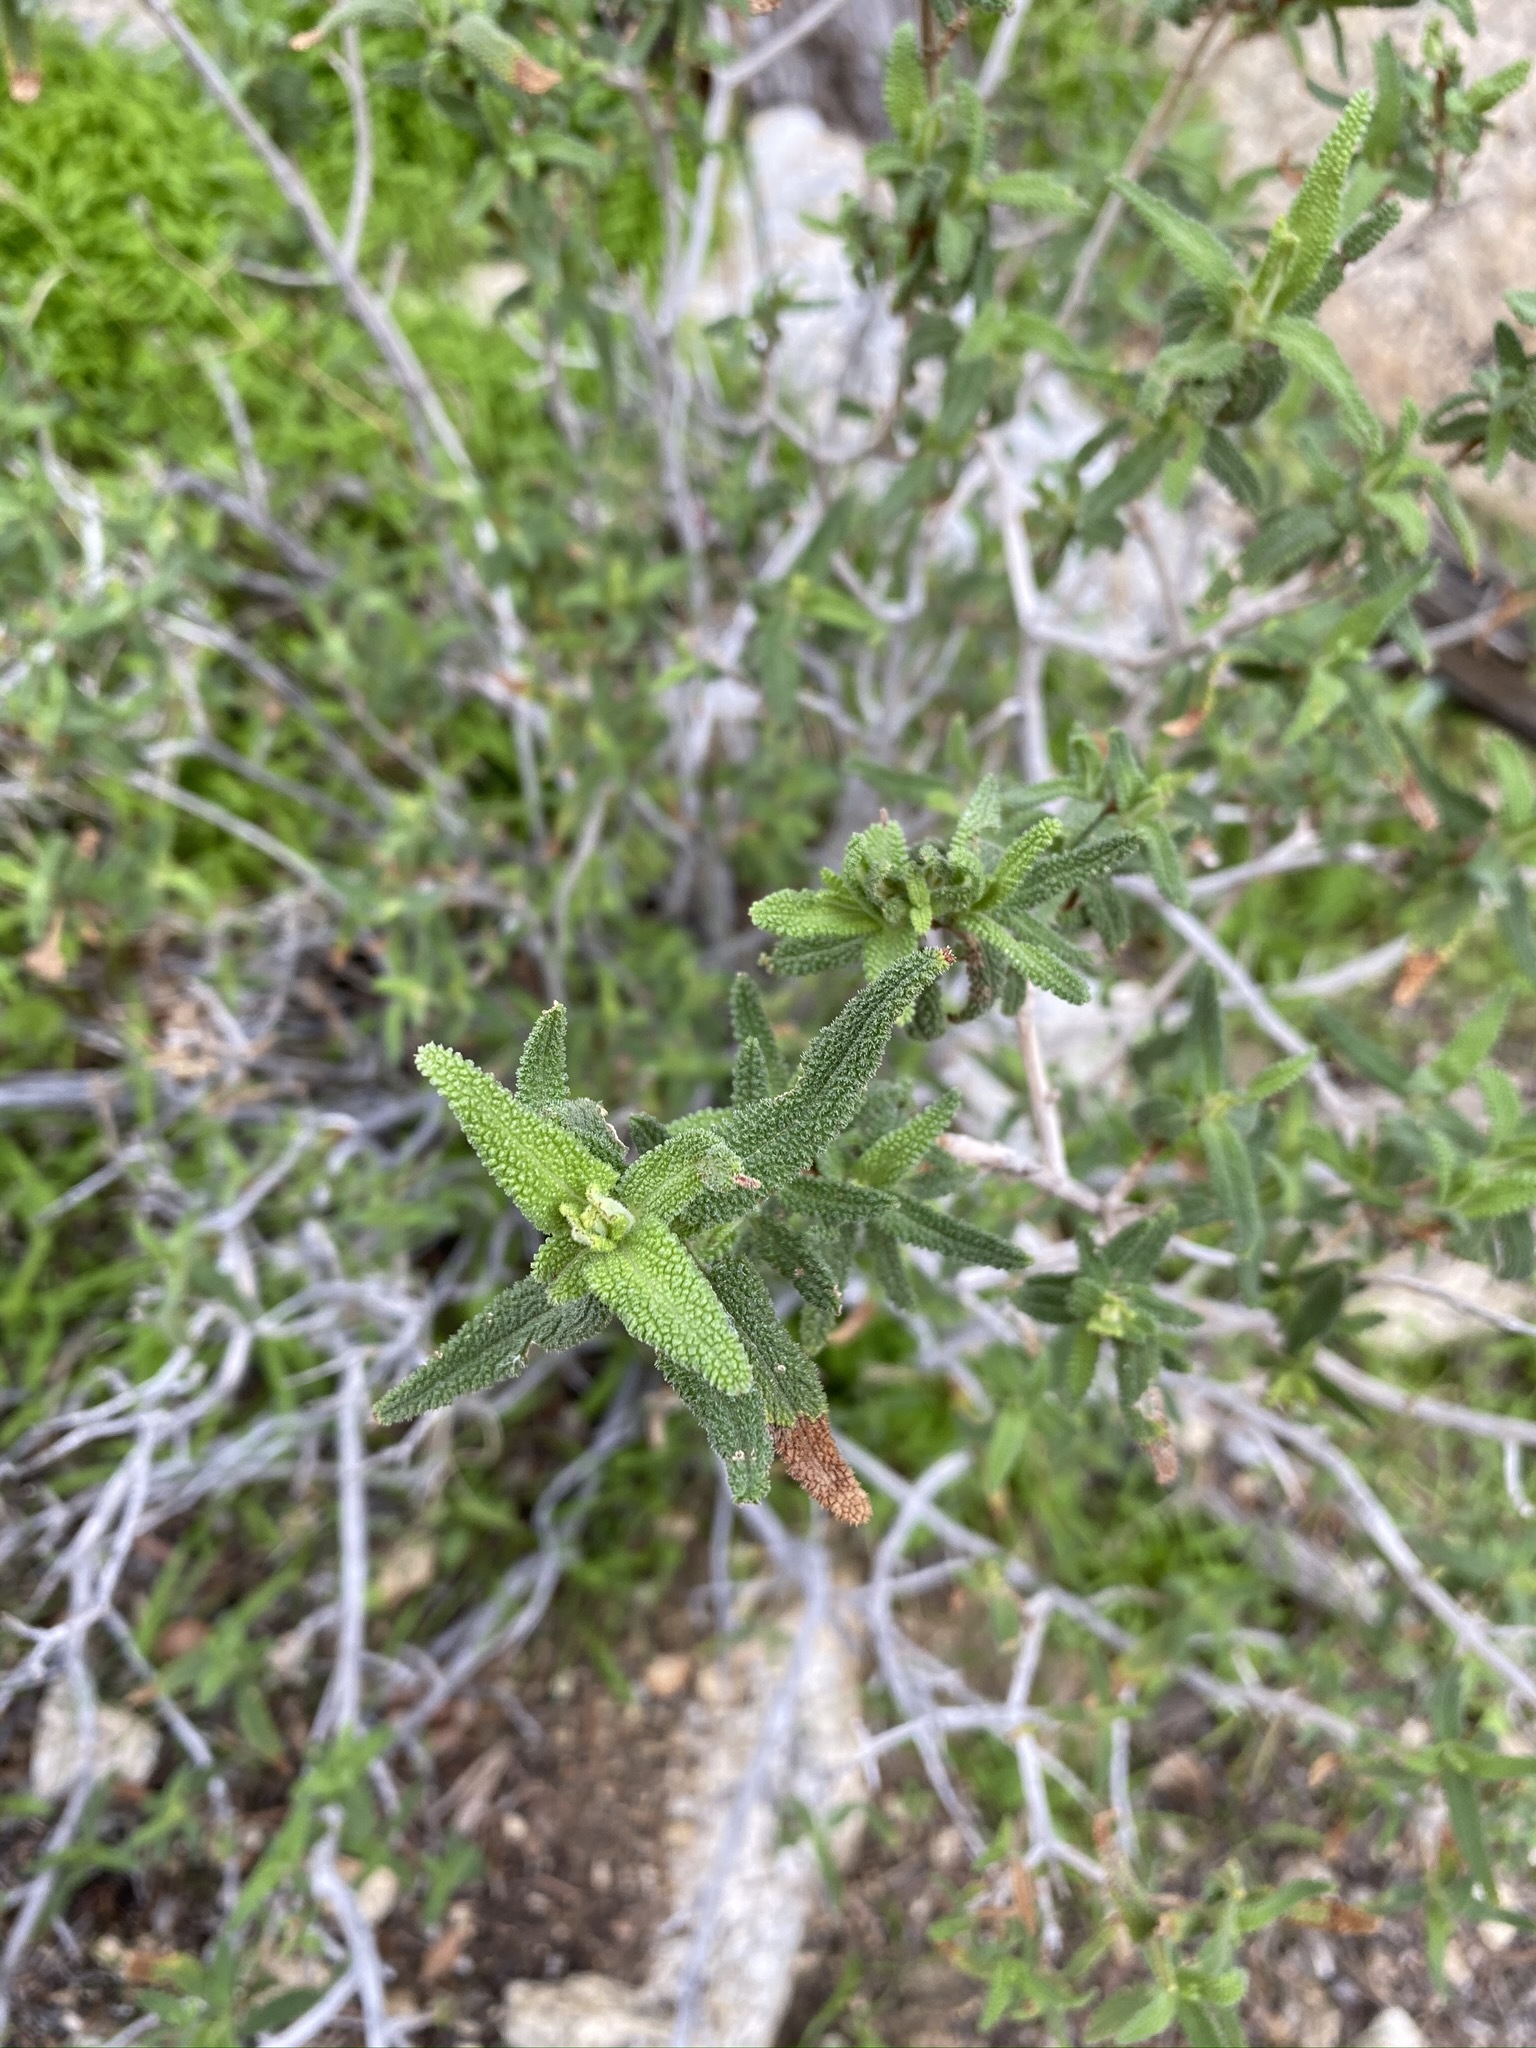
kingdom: Plantae
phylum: Tracheophyta
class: Magnoliopsida
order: Lamiales
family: Lamiaceae
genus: Salvia
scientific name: Salvia eremostachya
